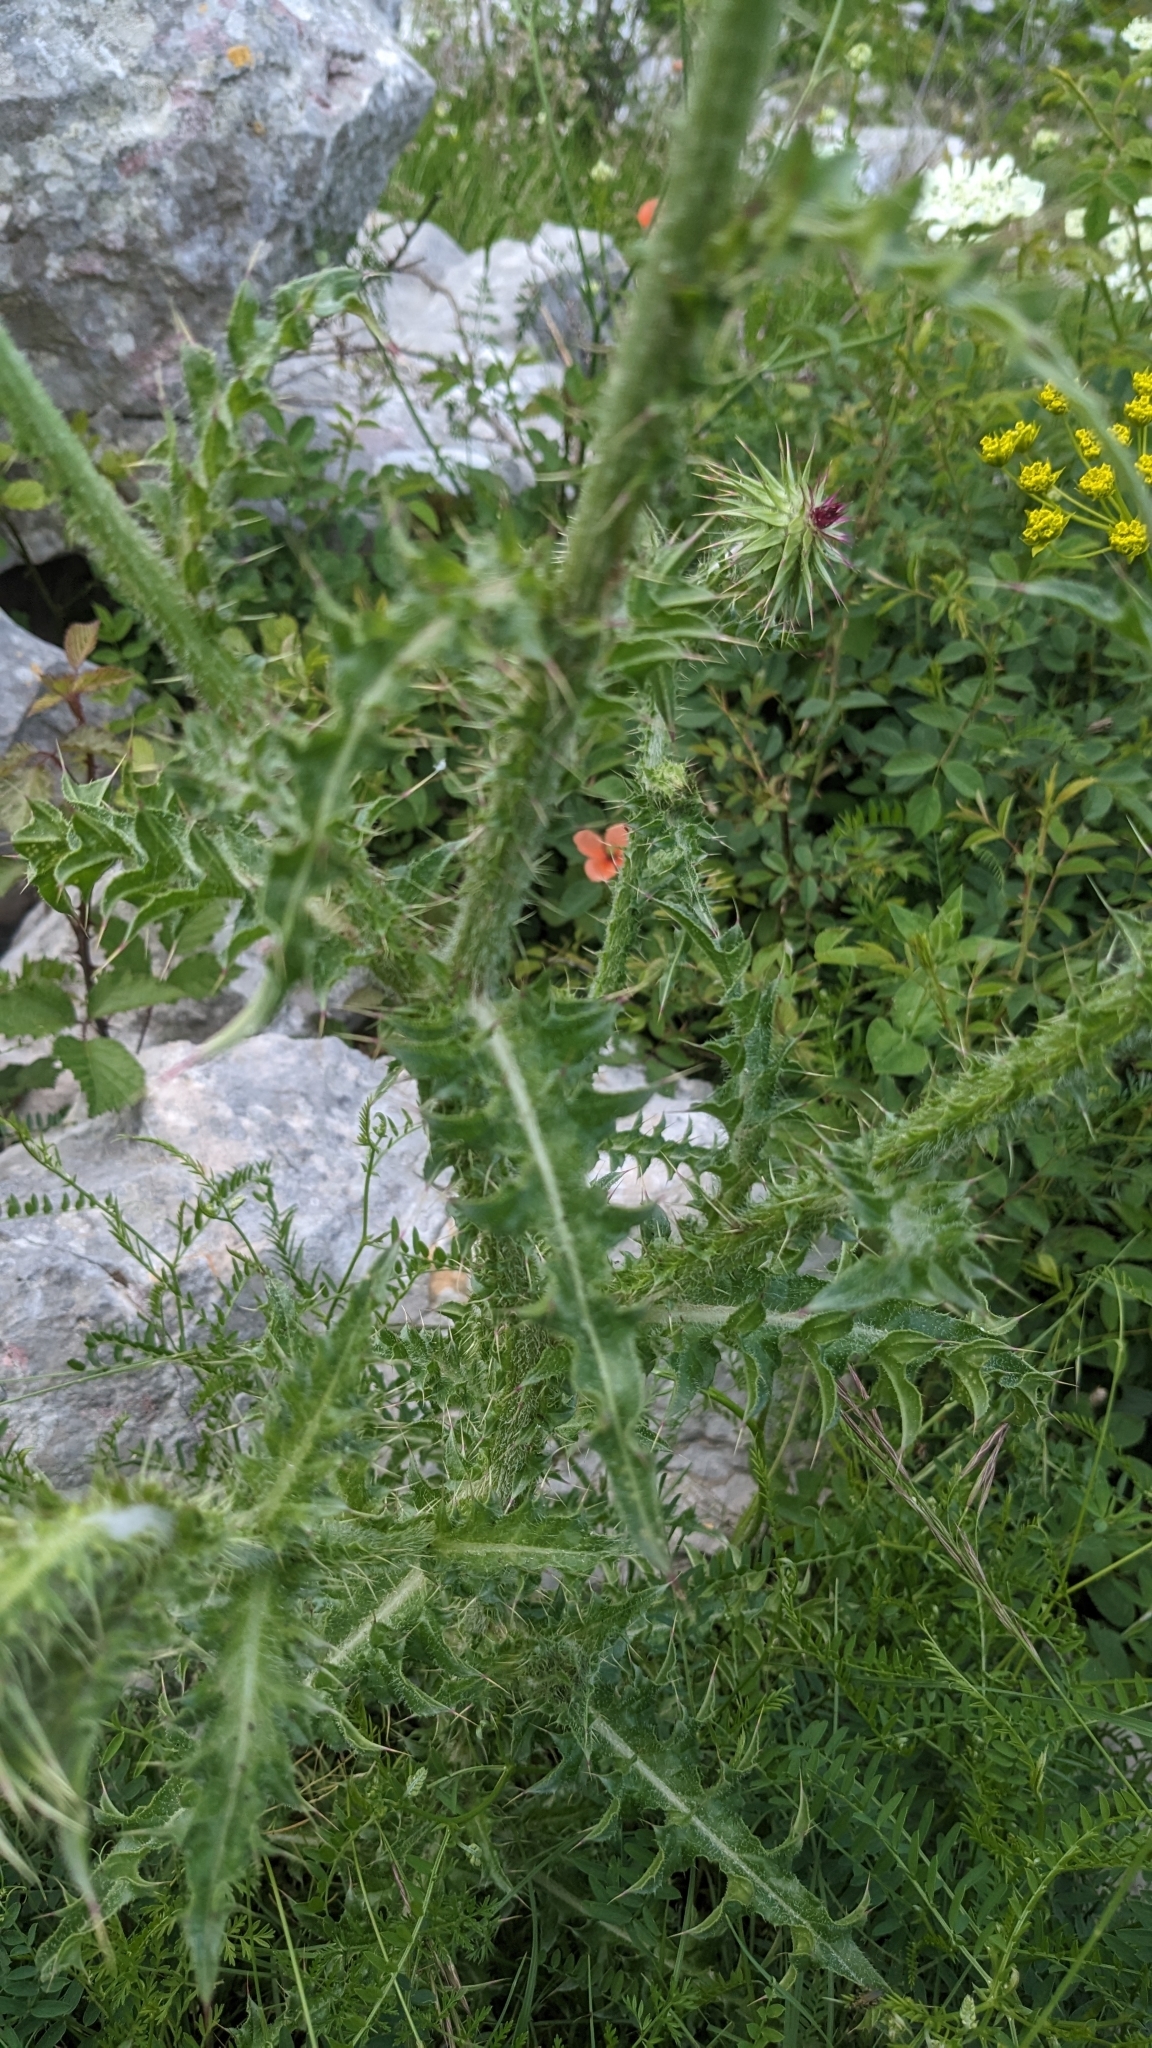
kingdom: Plantae
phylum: Tracheophyta
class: Magnoliopsida
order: Asterales
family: Asteraceae
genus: Carduus
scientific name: Carduus nutans
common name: Musk thistle
